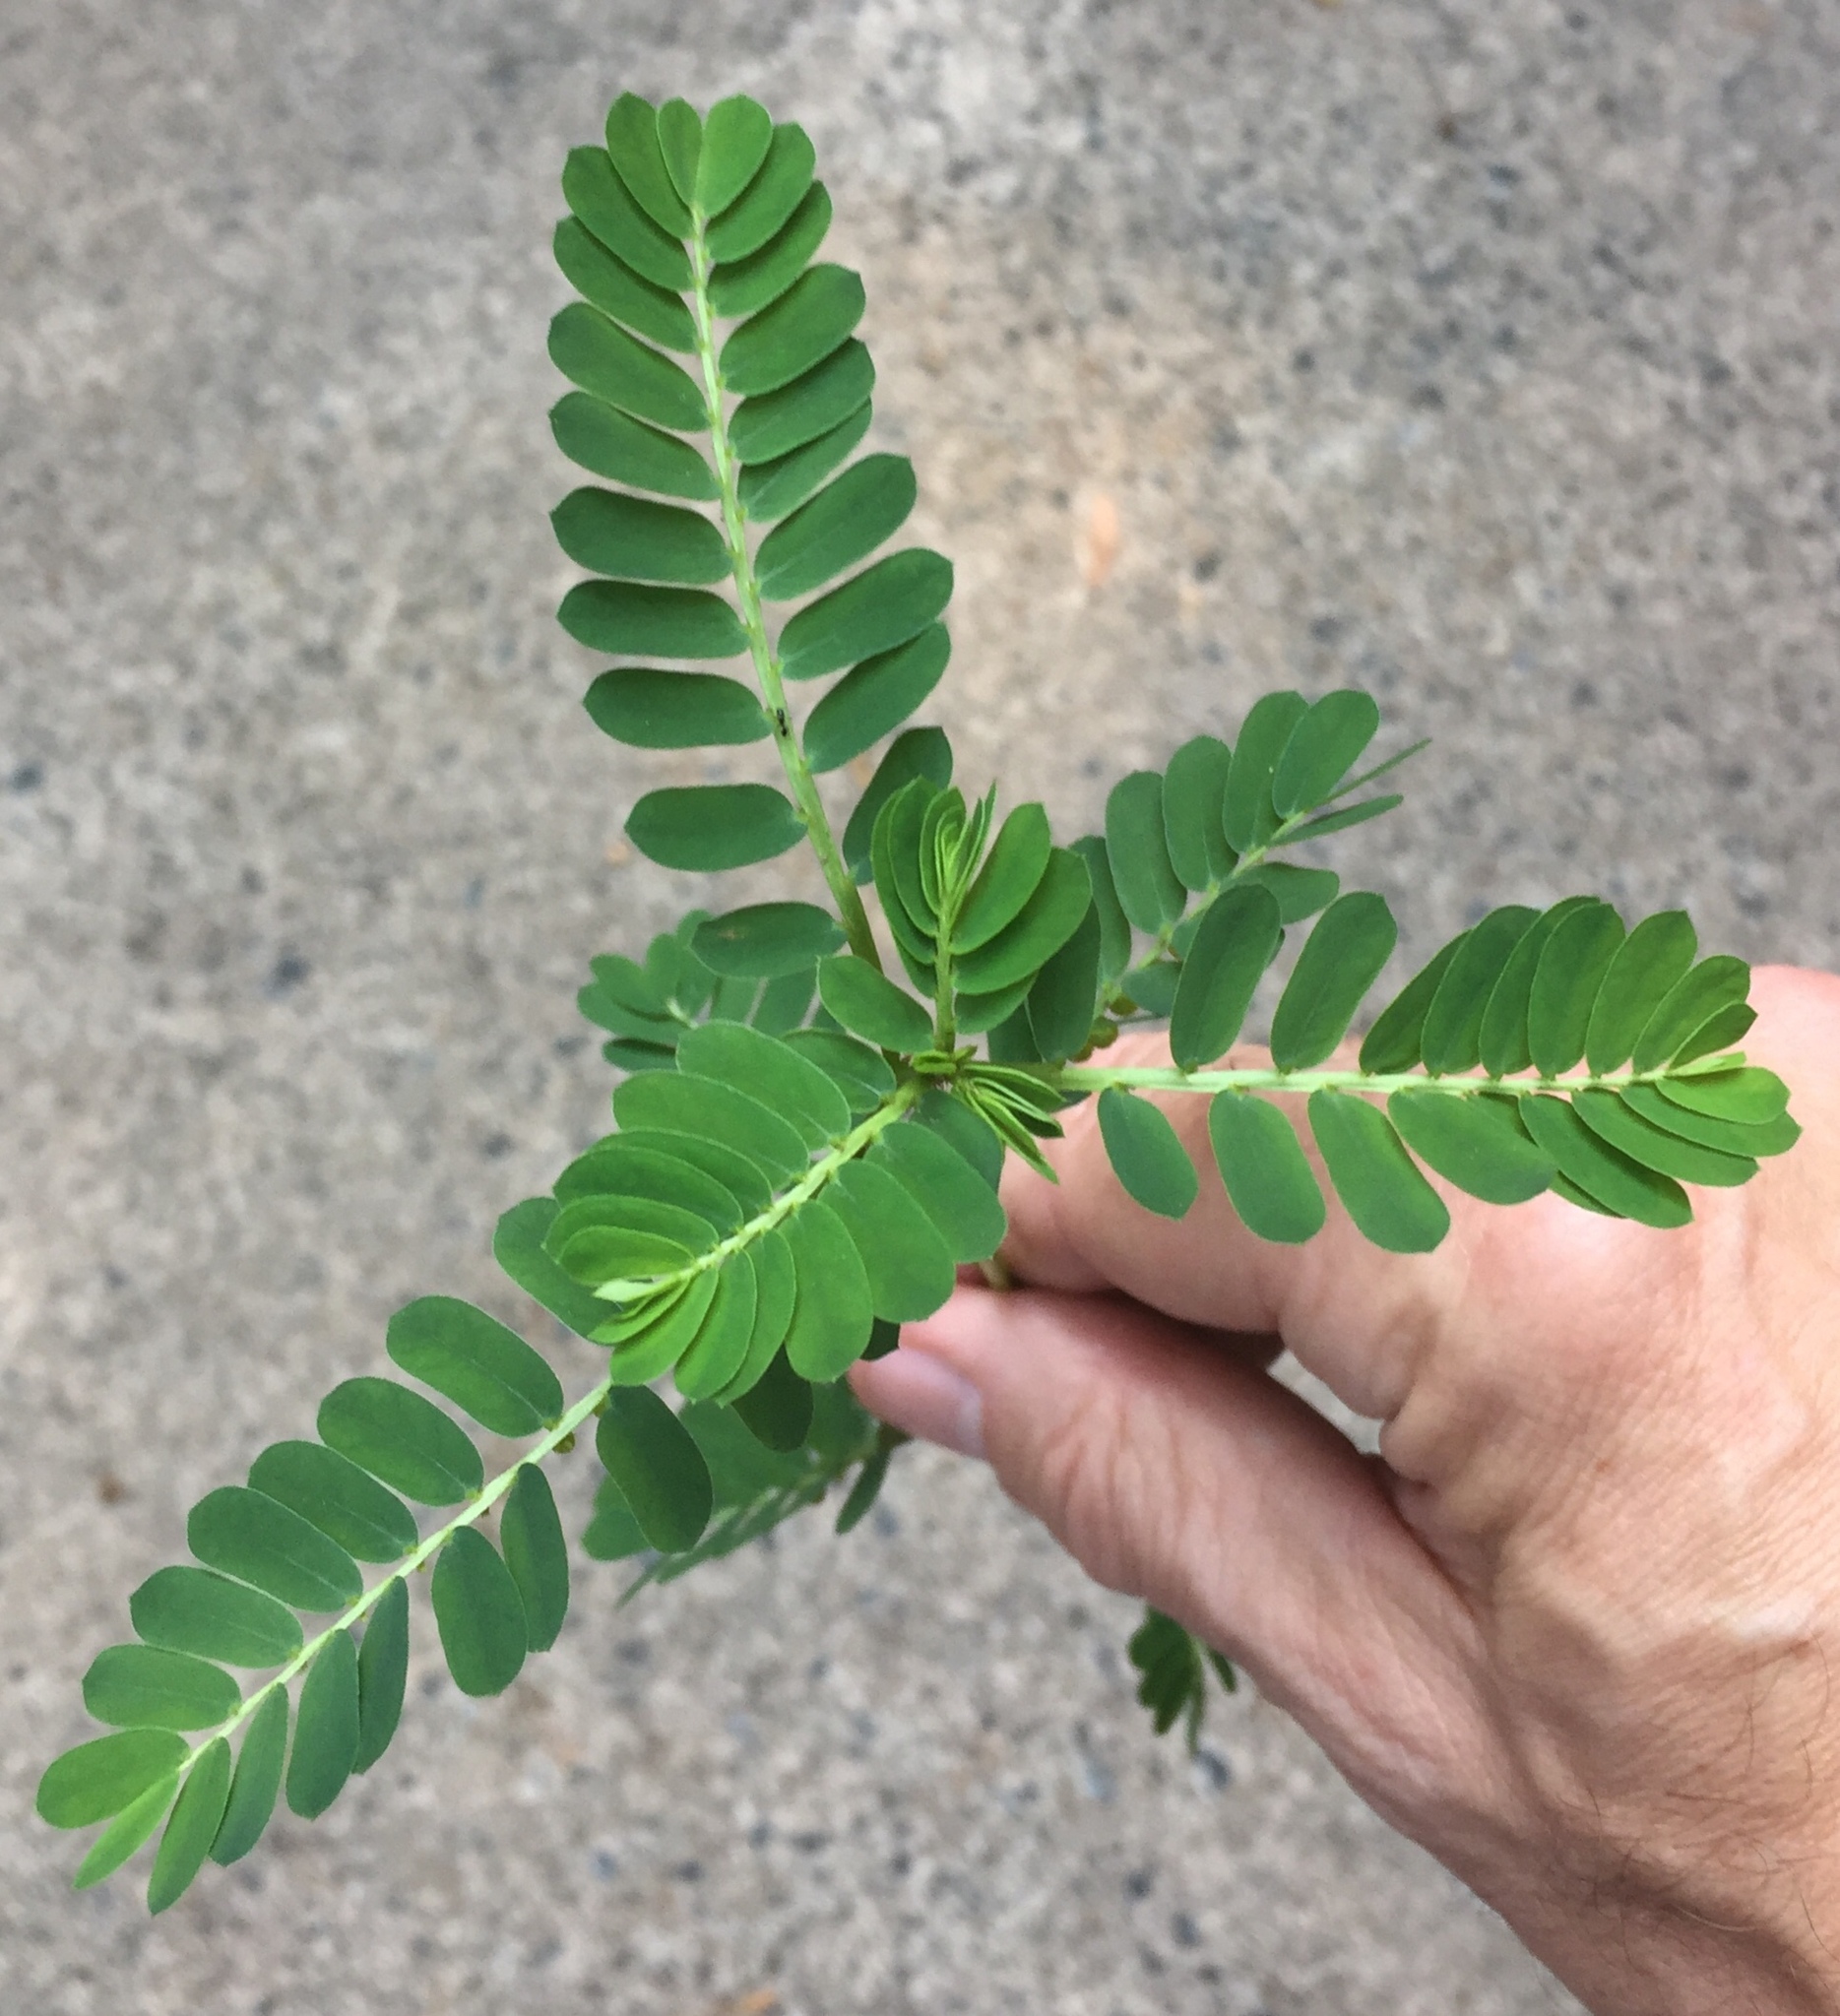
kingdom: Plantae
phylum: Tracheophyta
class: Magnoliopsida
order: Malpighiales
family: Phyllanthaceae
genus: Phyllanthus
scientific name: Phyllanthus urinaria
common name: Chamber bitter
